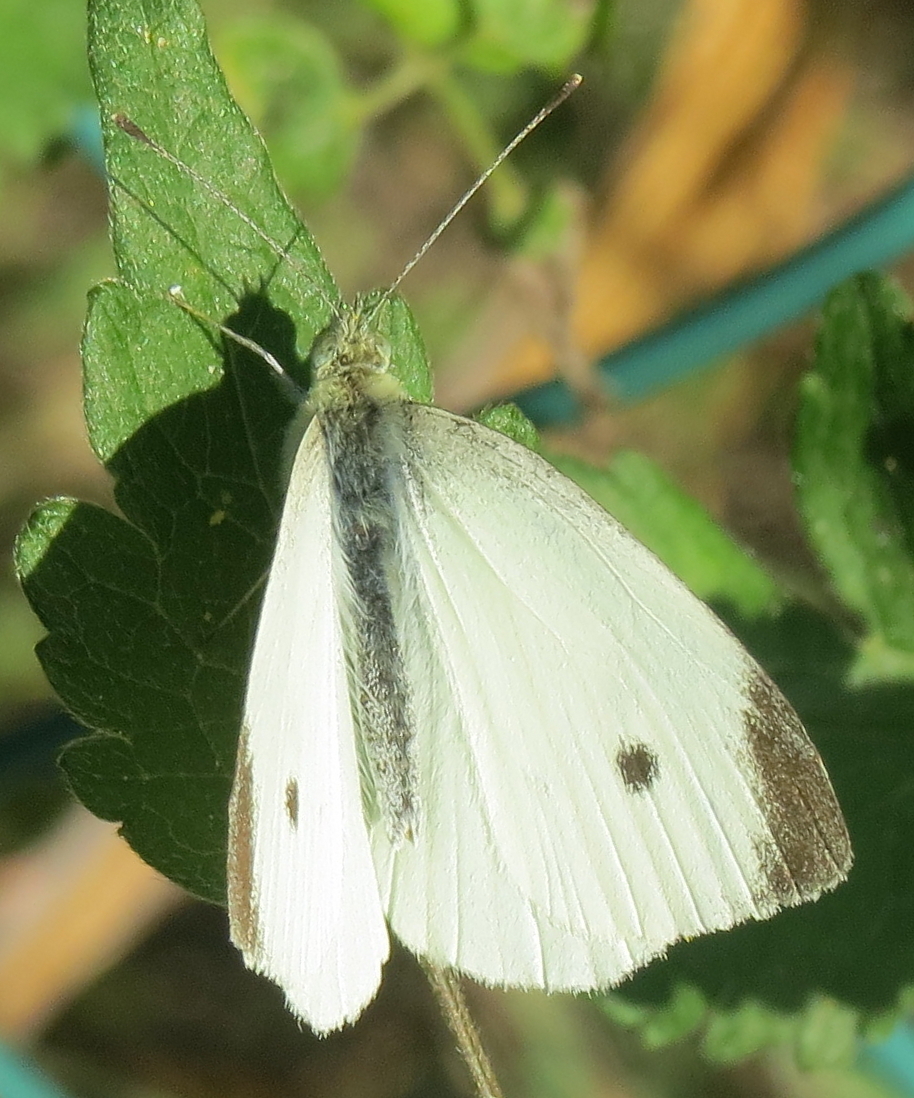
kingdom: Animalia
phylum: Arthropoda
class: Insecta
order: Lepidoptera
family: Pieridae
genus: Pieris
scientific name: Pieris rapae
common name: Small white
